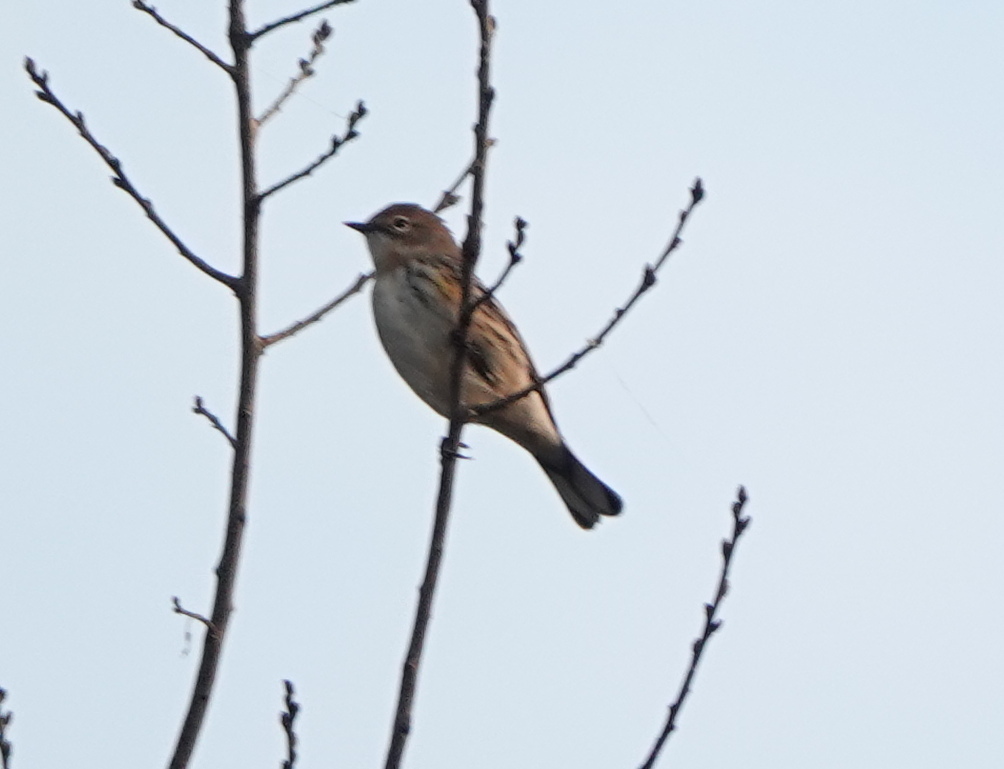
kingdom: Animalia
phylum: Chordata
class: Aves
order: Passeriformes
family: Parulidae
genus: Setophaga
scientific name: Setophaga coronata
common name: Myrtle warbler
